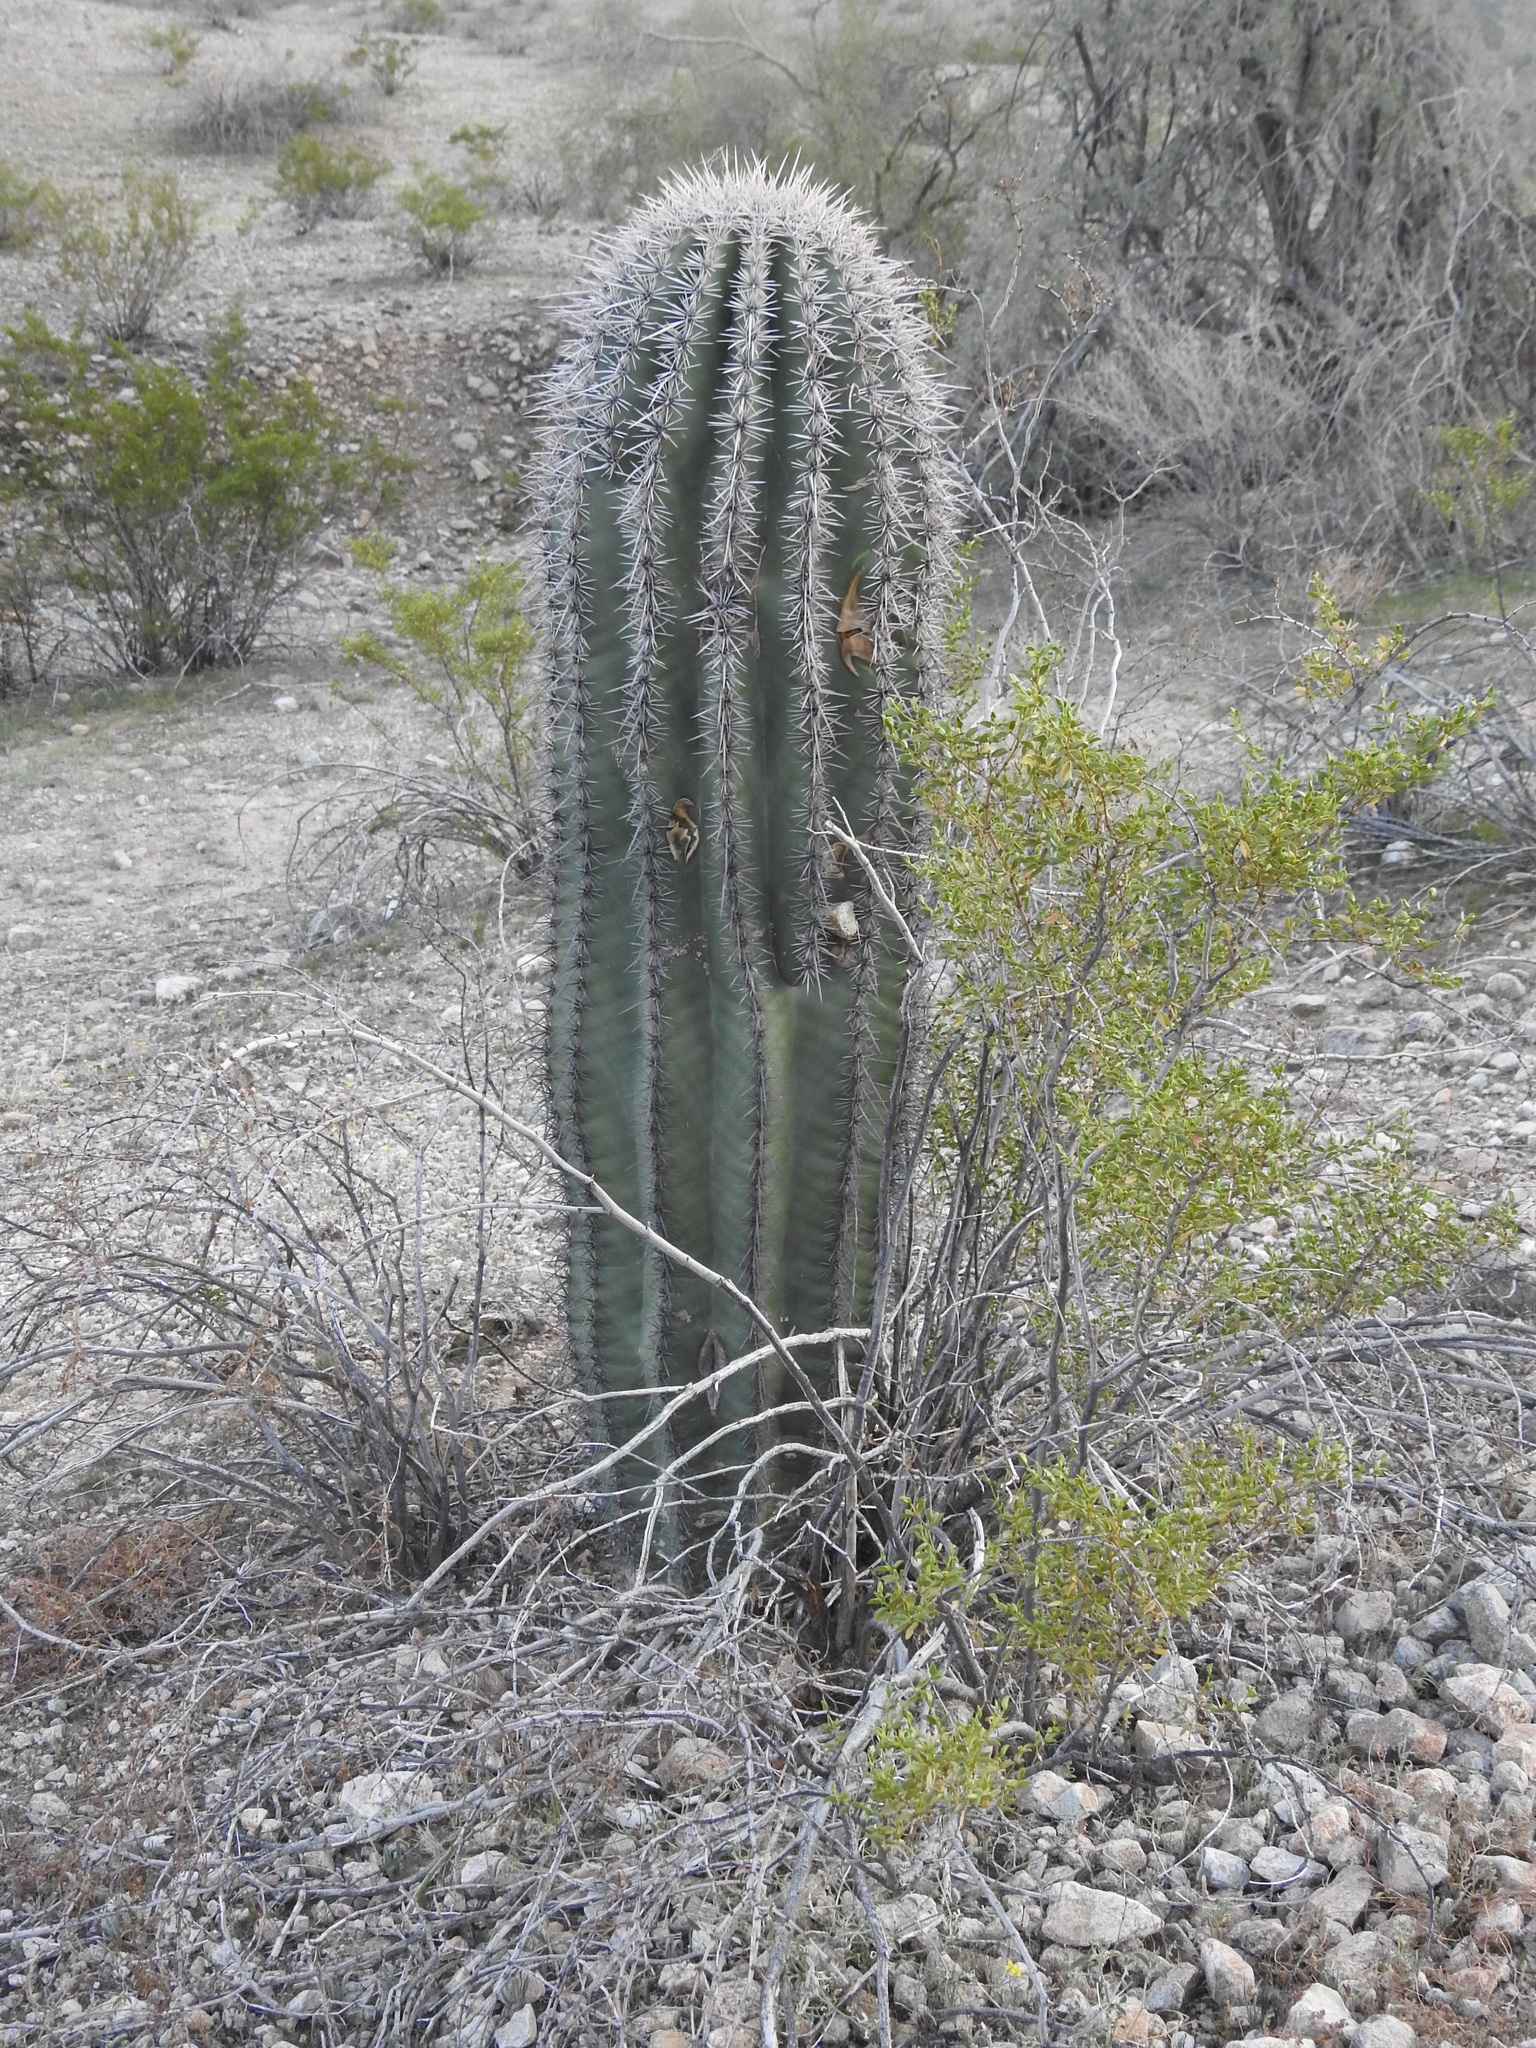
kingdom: Plantae
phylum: Tracheophyta
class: Magnoliopsida
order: Caryophyllales
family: Cactaceae
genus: Carnegiea
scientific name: Carnegiea gigantea
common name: Saguaro
